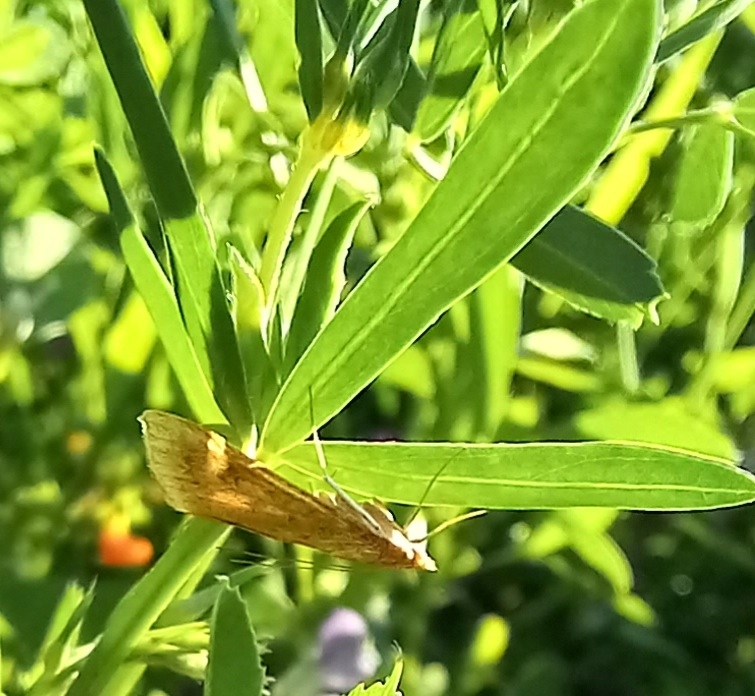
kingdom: Animalia
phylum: Arthropoda
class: Insecta
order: Lepidoptera
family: Crambidae
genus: Udea
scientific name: Udea ferrugalis
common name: Rusty dot
